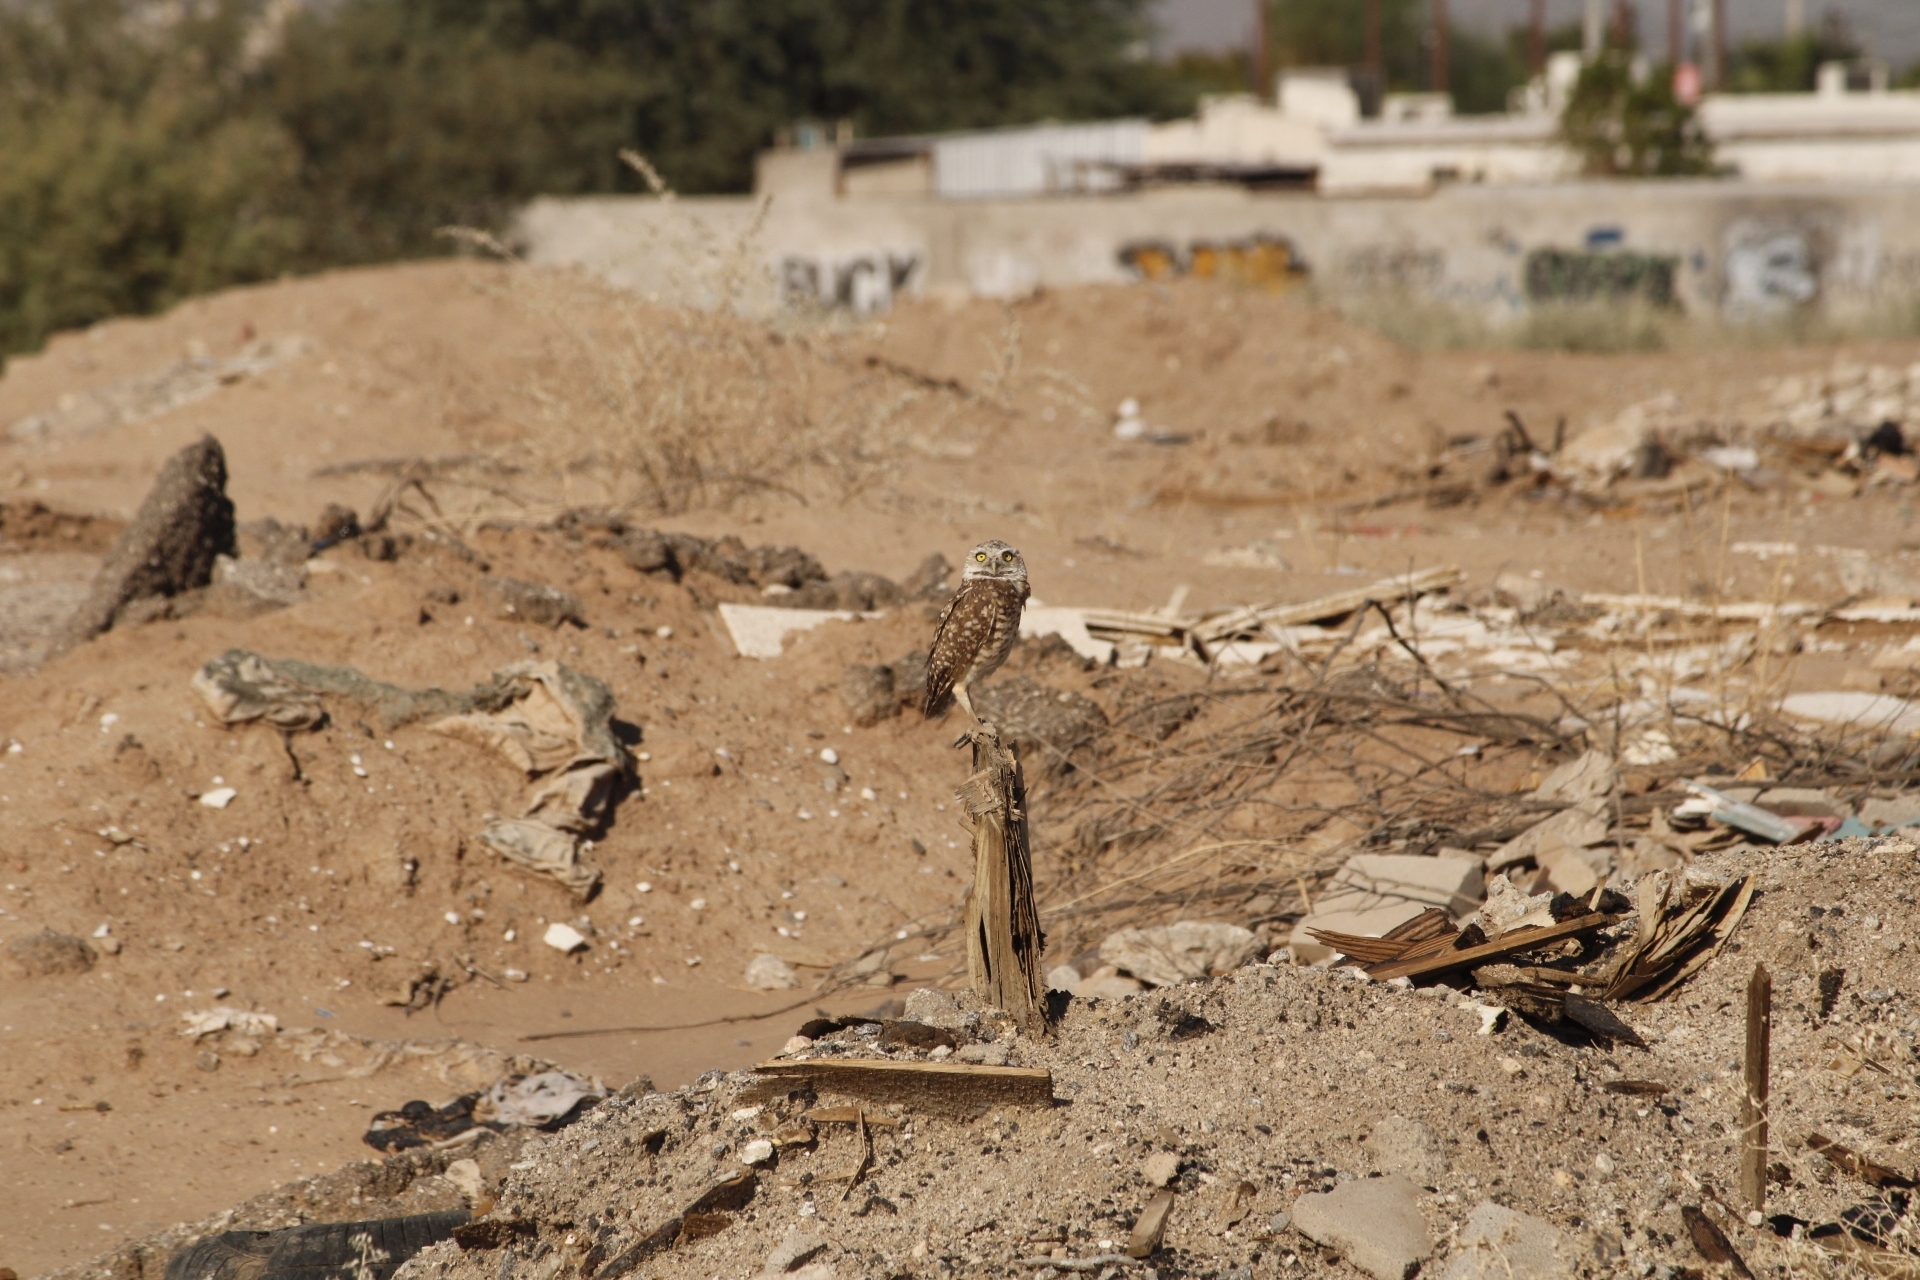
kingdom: Animalia
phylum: Chordata
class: Aves
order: Strigiformes
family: Strigidae
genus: Athene
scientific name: Athene cunicularia
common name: Burrowing owl
